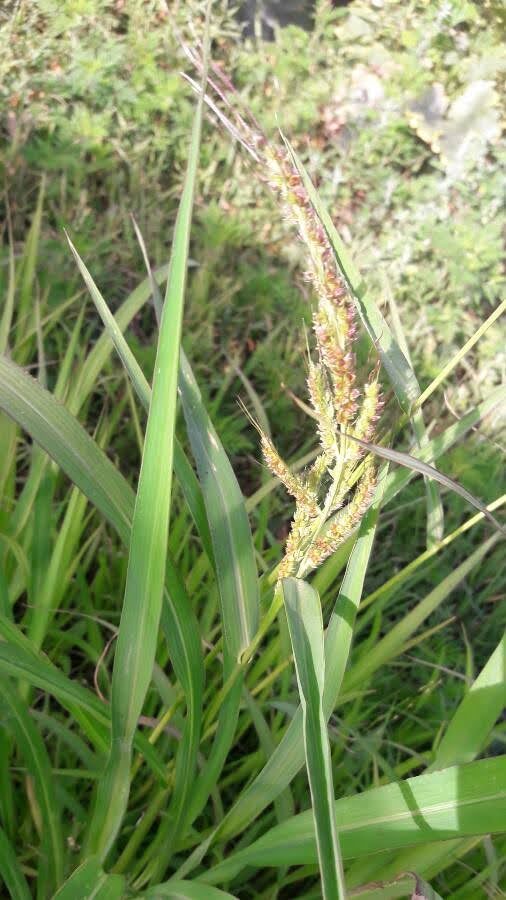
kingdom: Plantae
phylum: Tracheophyta
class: Liliopsida
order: Poales
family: Poaceae
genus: Echinochloa
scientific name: Echinochloa crus-galli
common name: Cockspur
